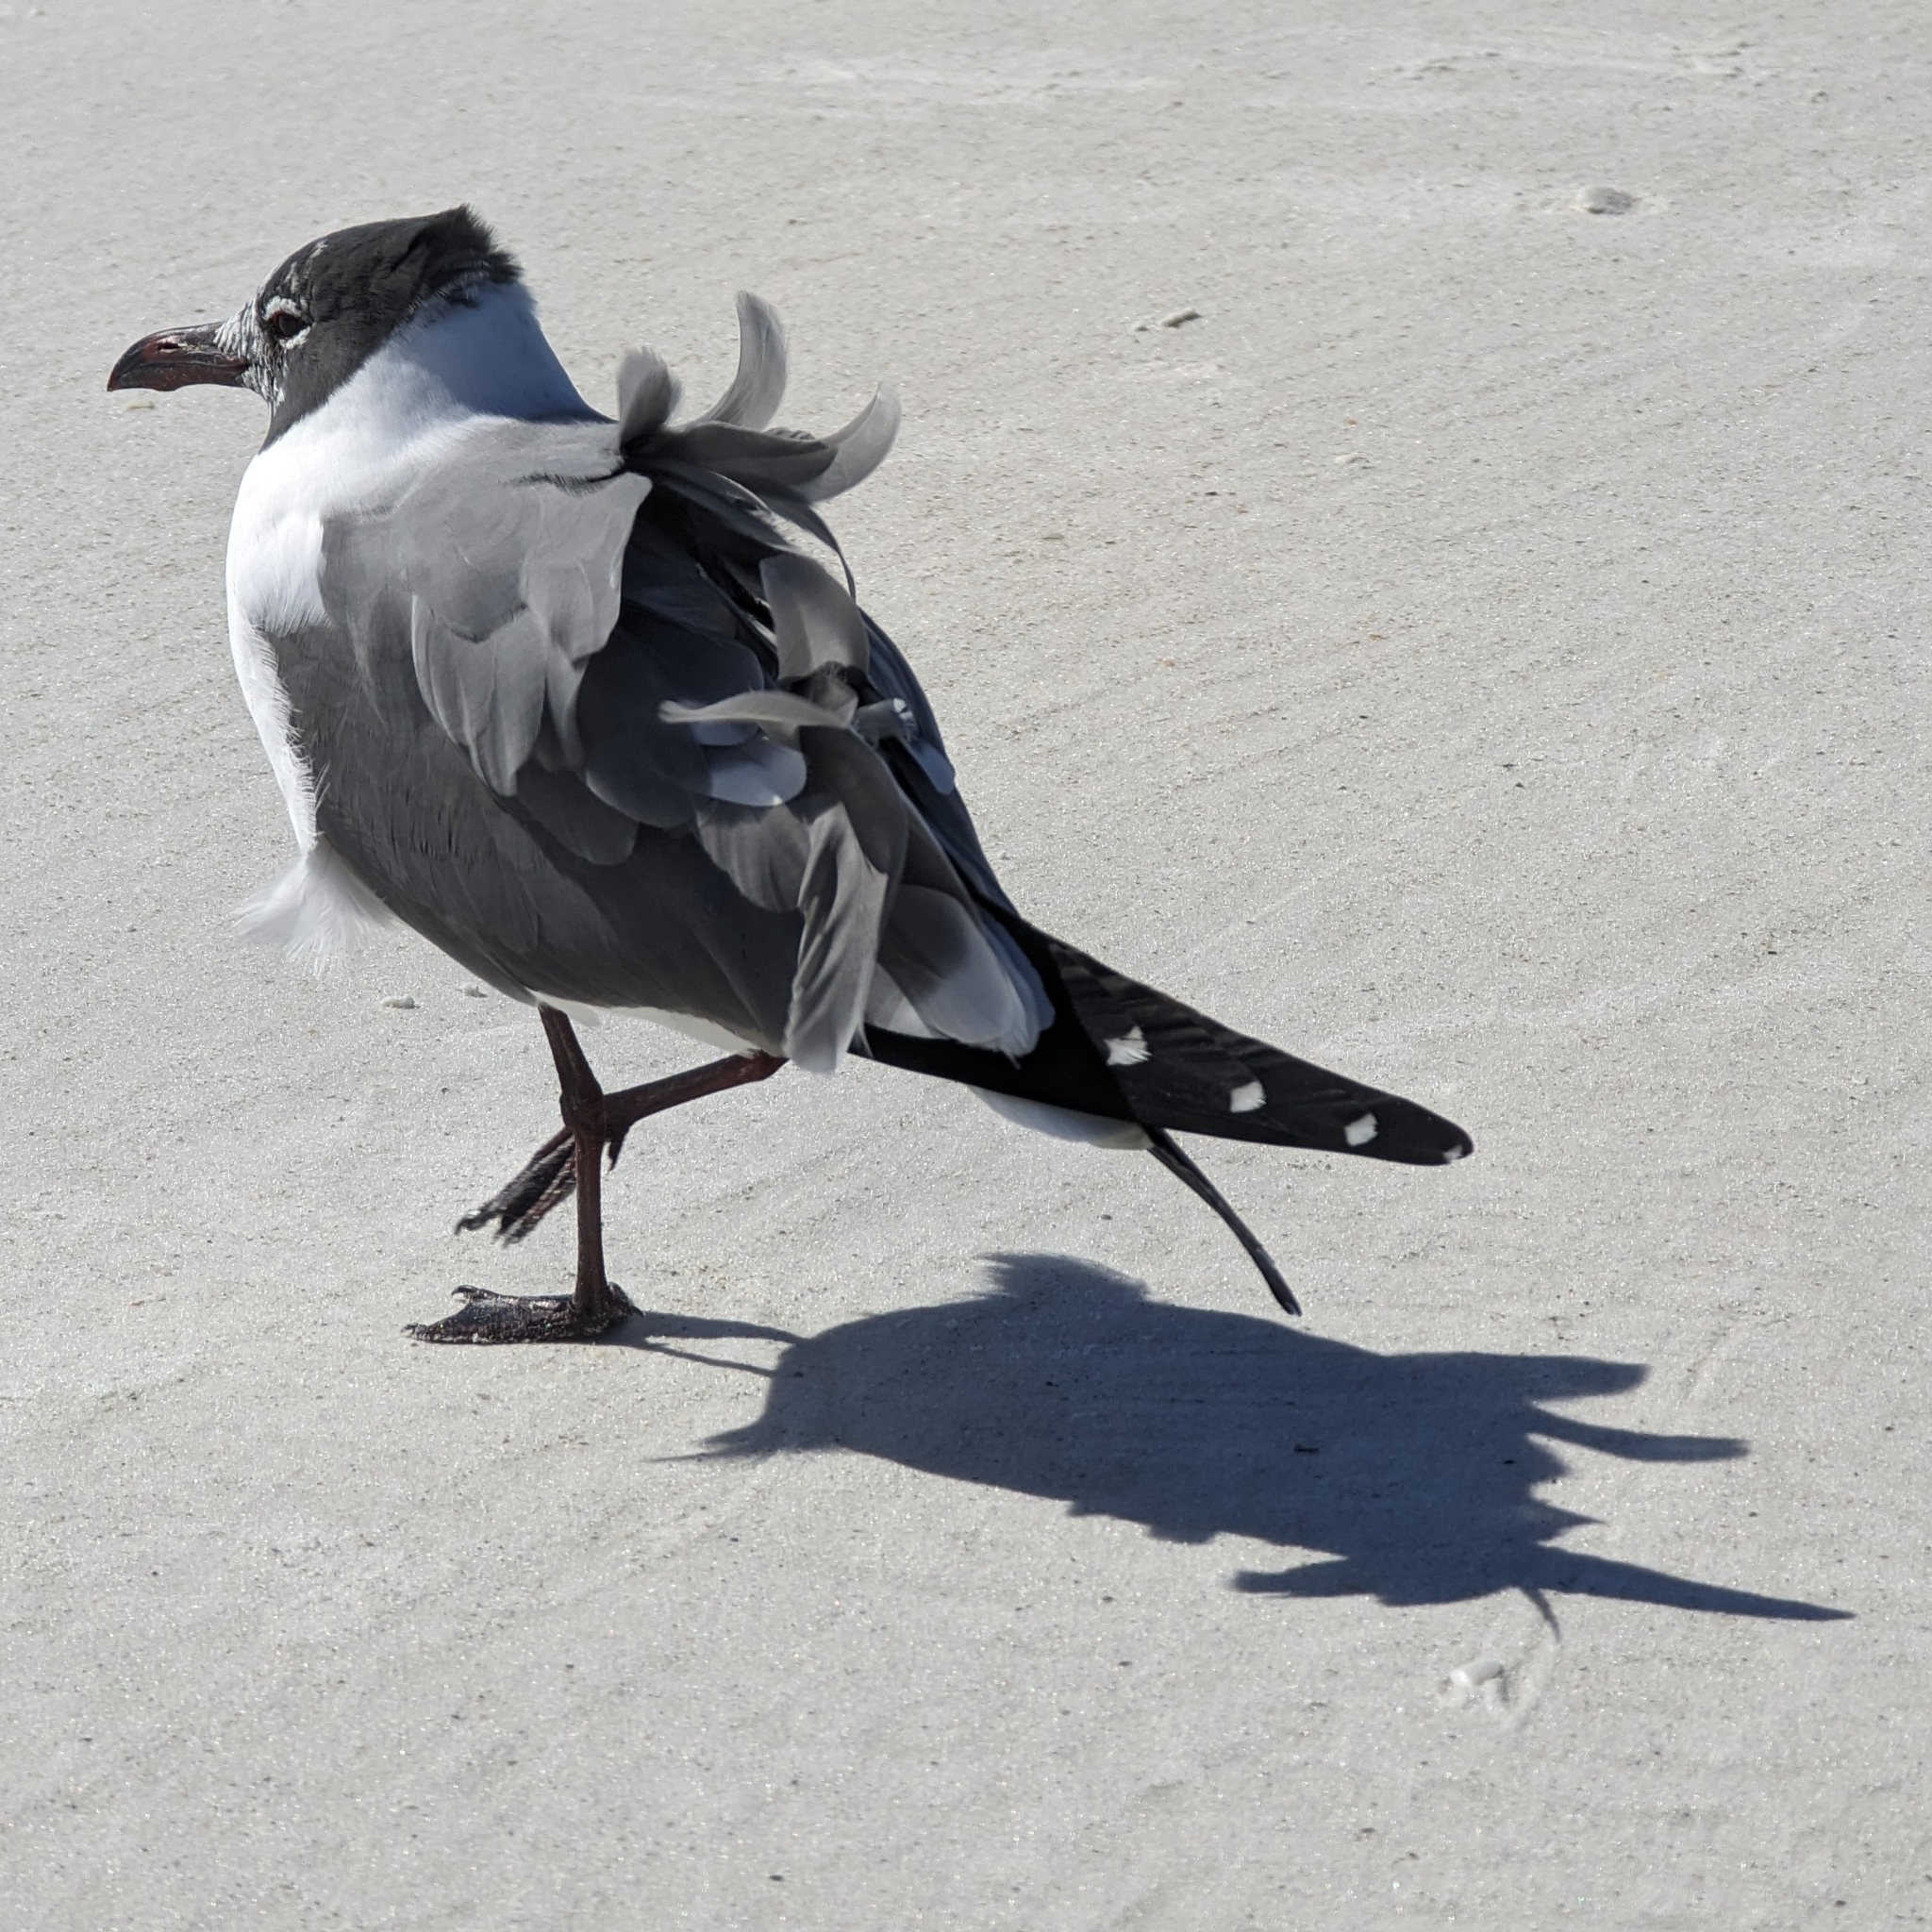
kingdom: Animalia
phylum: Chordata
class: Aves
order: Charadriiformes
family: Laridae
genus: Leucophaeus
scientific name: Leucophaeus atricilla
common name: Laughing gull
